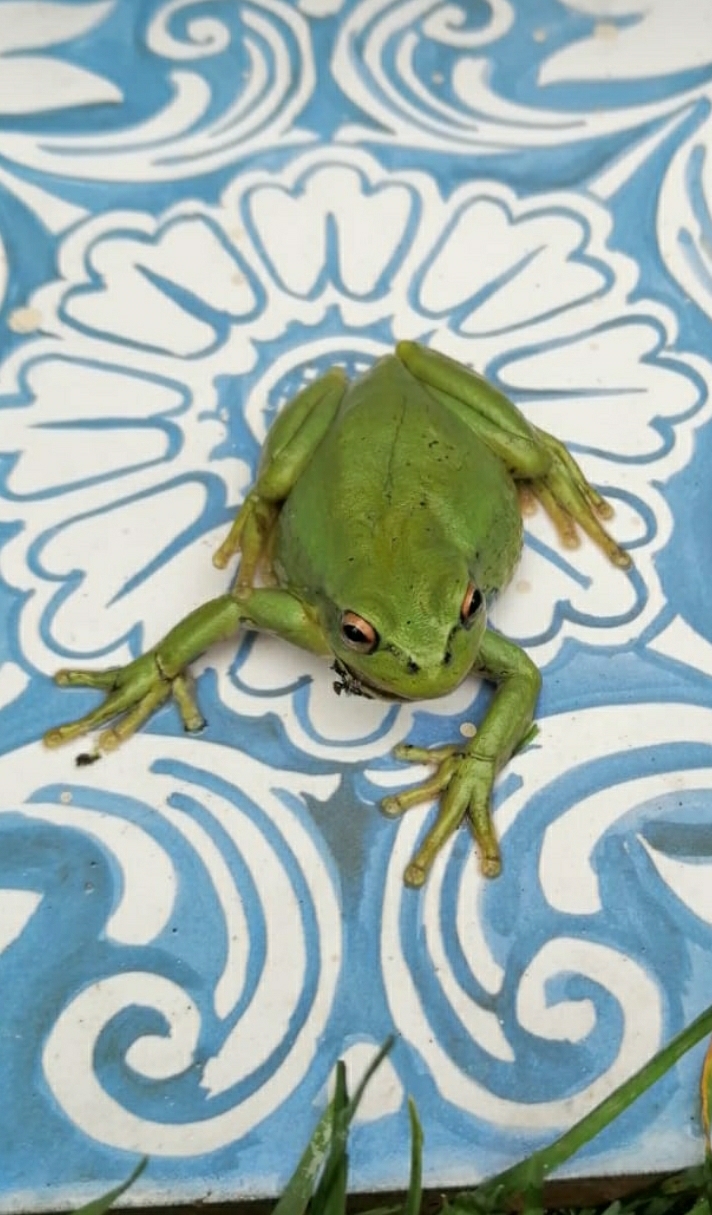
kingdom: Animalia
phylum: Chordata
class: Amphibia
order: Anura
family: Hylidae
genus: Dendropsophus
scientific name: Dendropsophus molitor
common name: Green dotted treefrog
